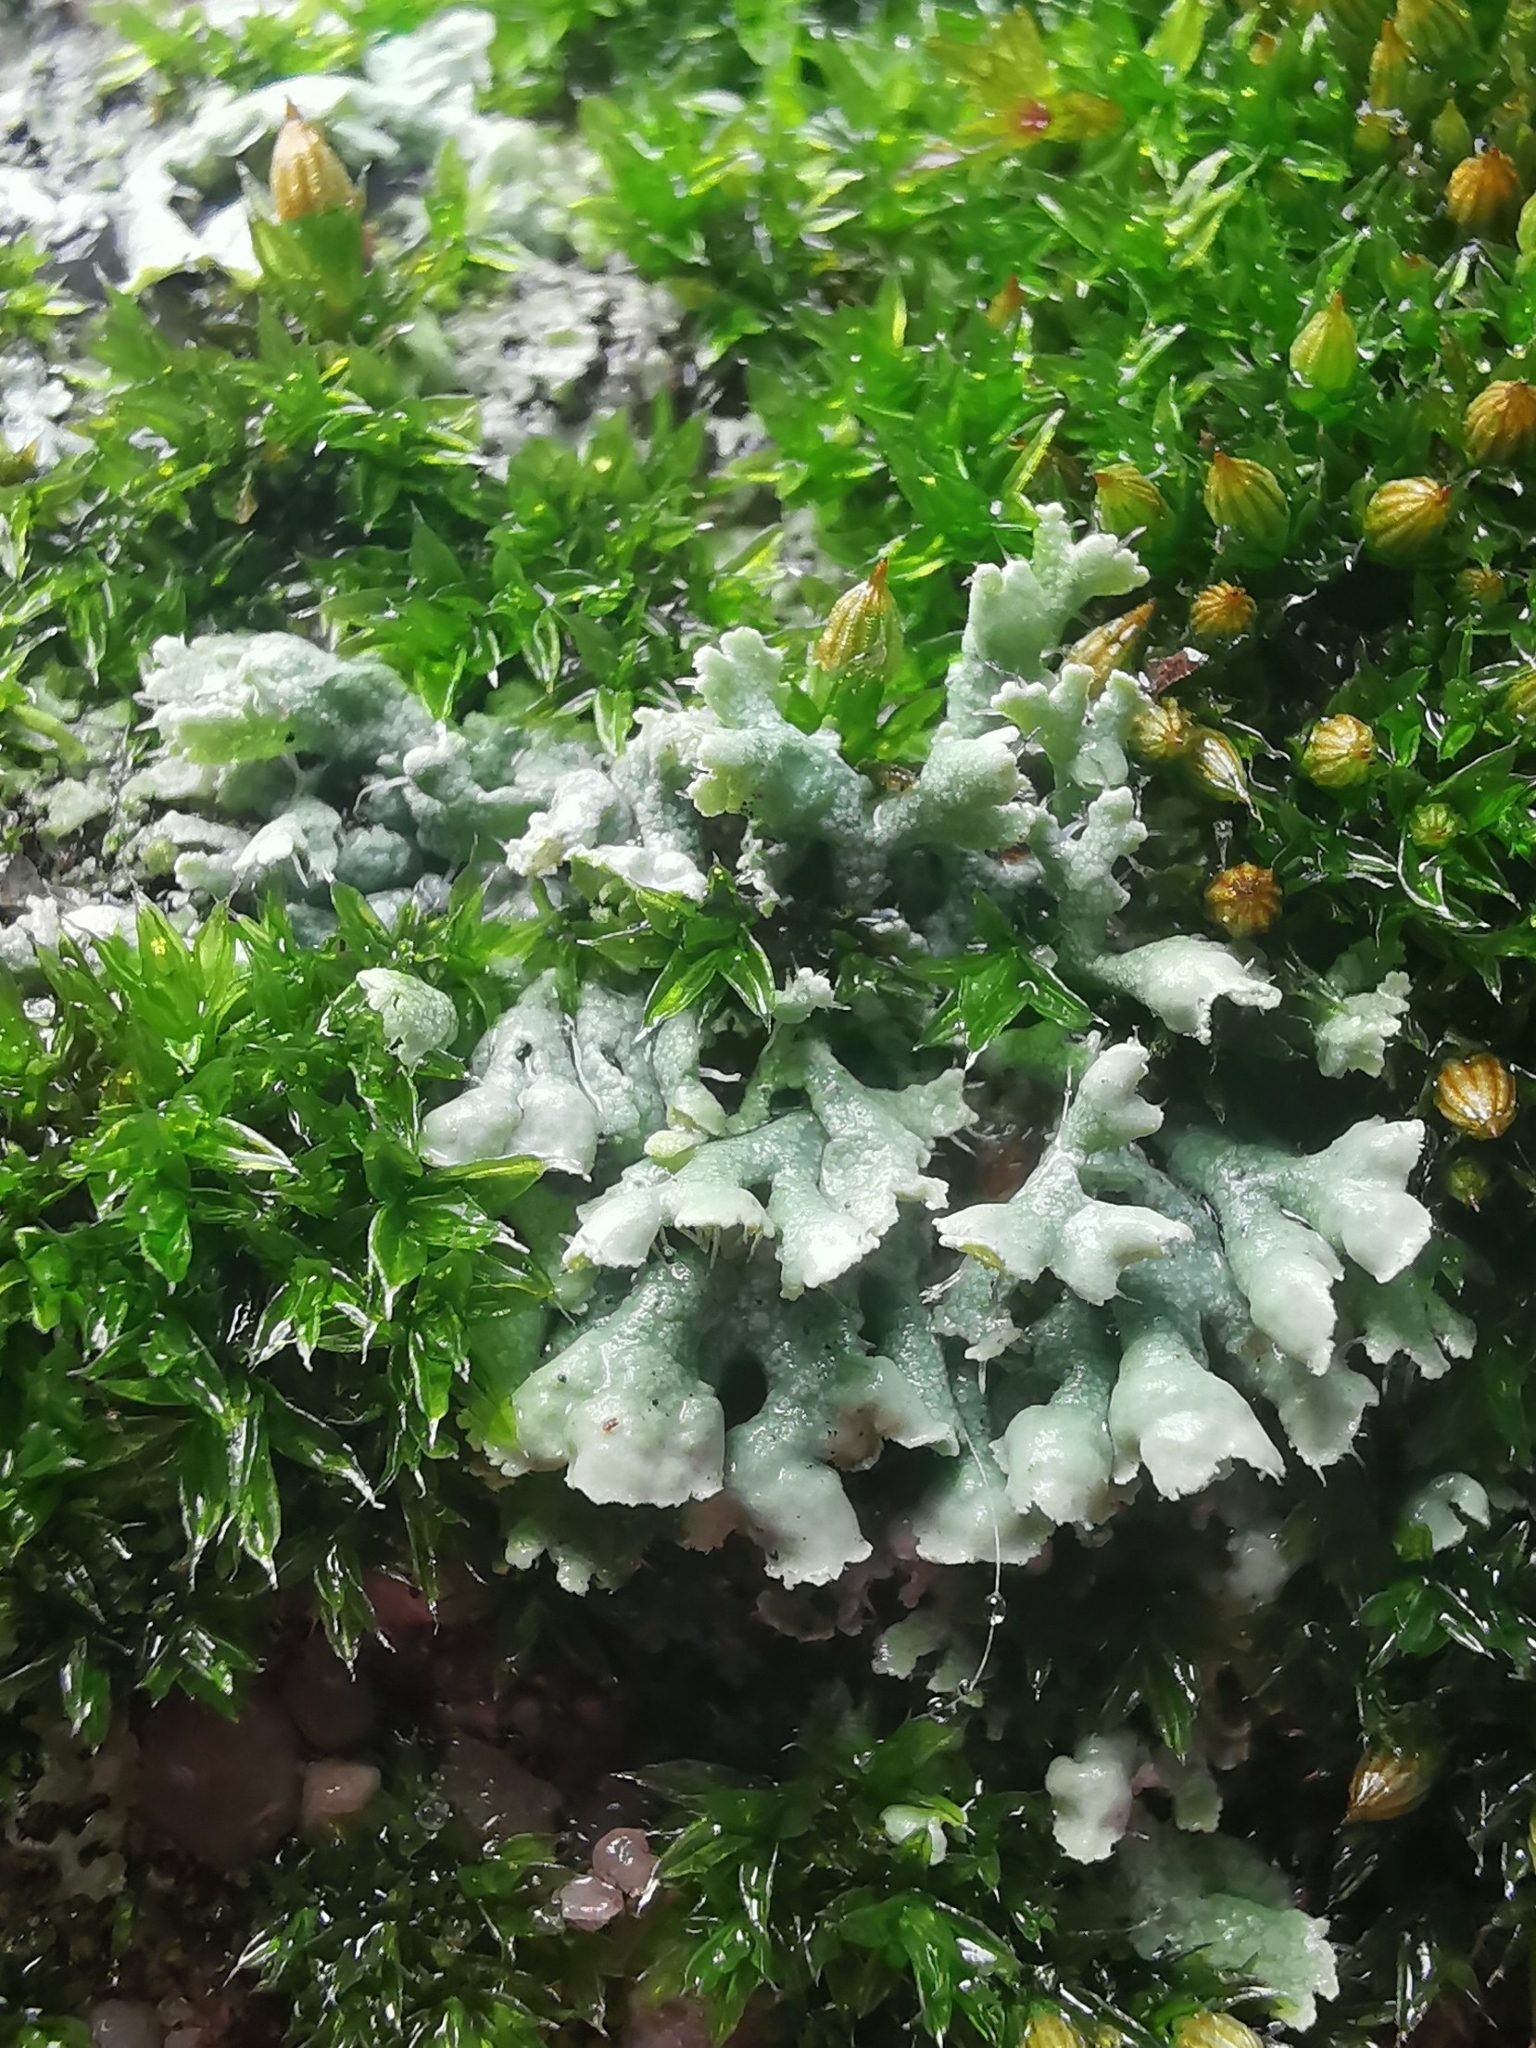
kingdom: Fungi
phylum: Ascomycota
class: Lecanoromycetes
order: Caliciales
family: Physciaceae
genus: Physcia
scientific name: Physcia adscendens
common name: Hooded rosette lichen
